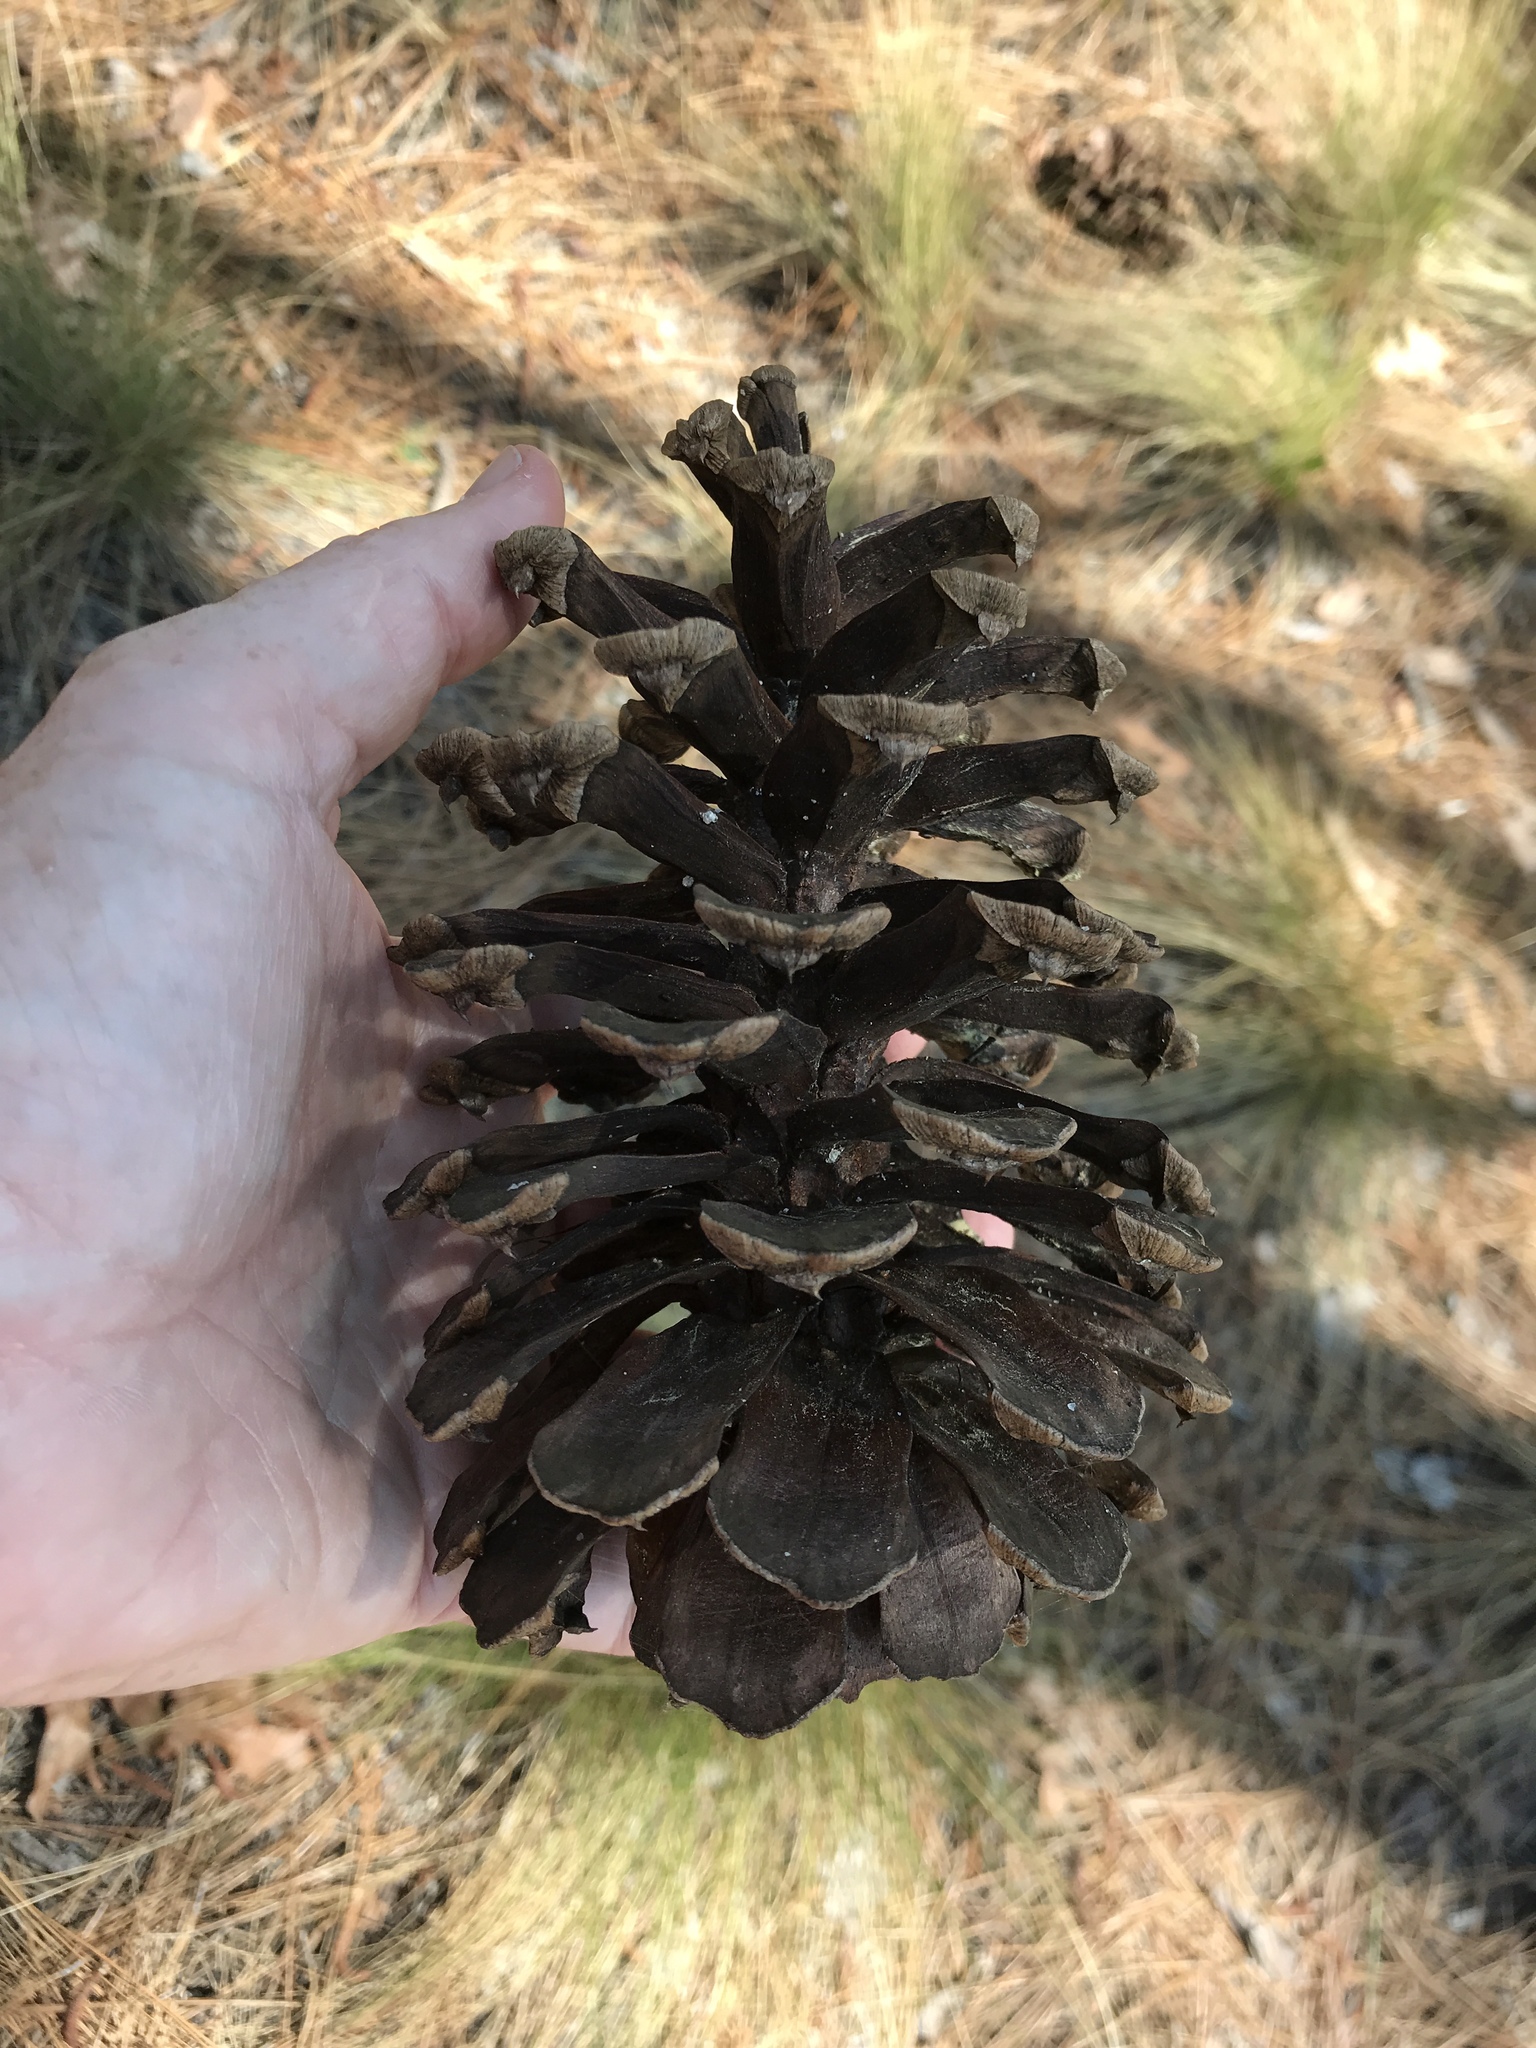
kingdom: Plantae
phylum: Tracheophyta
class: Pinopsida
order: Pinales
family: Pinaceae
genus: Pinus
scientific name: Pinus palustris
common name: Longleaf pine
